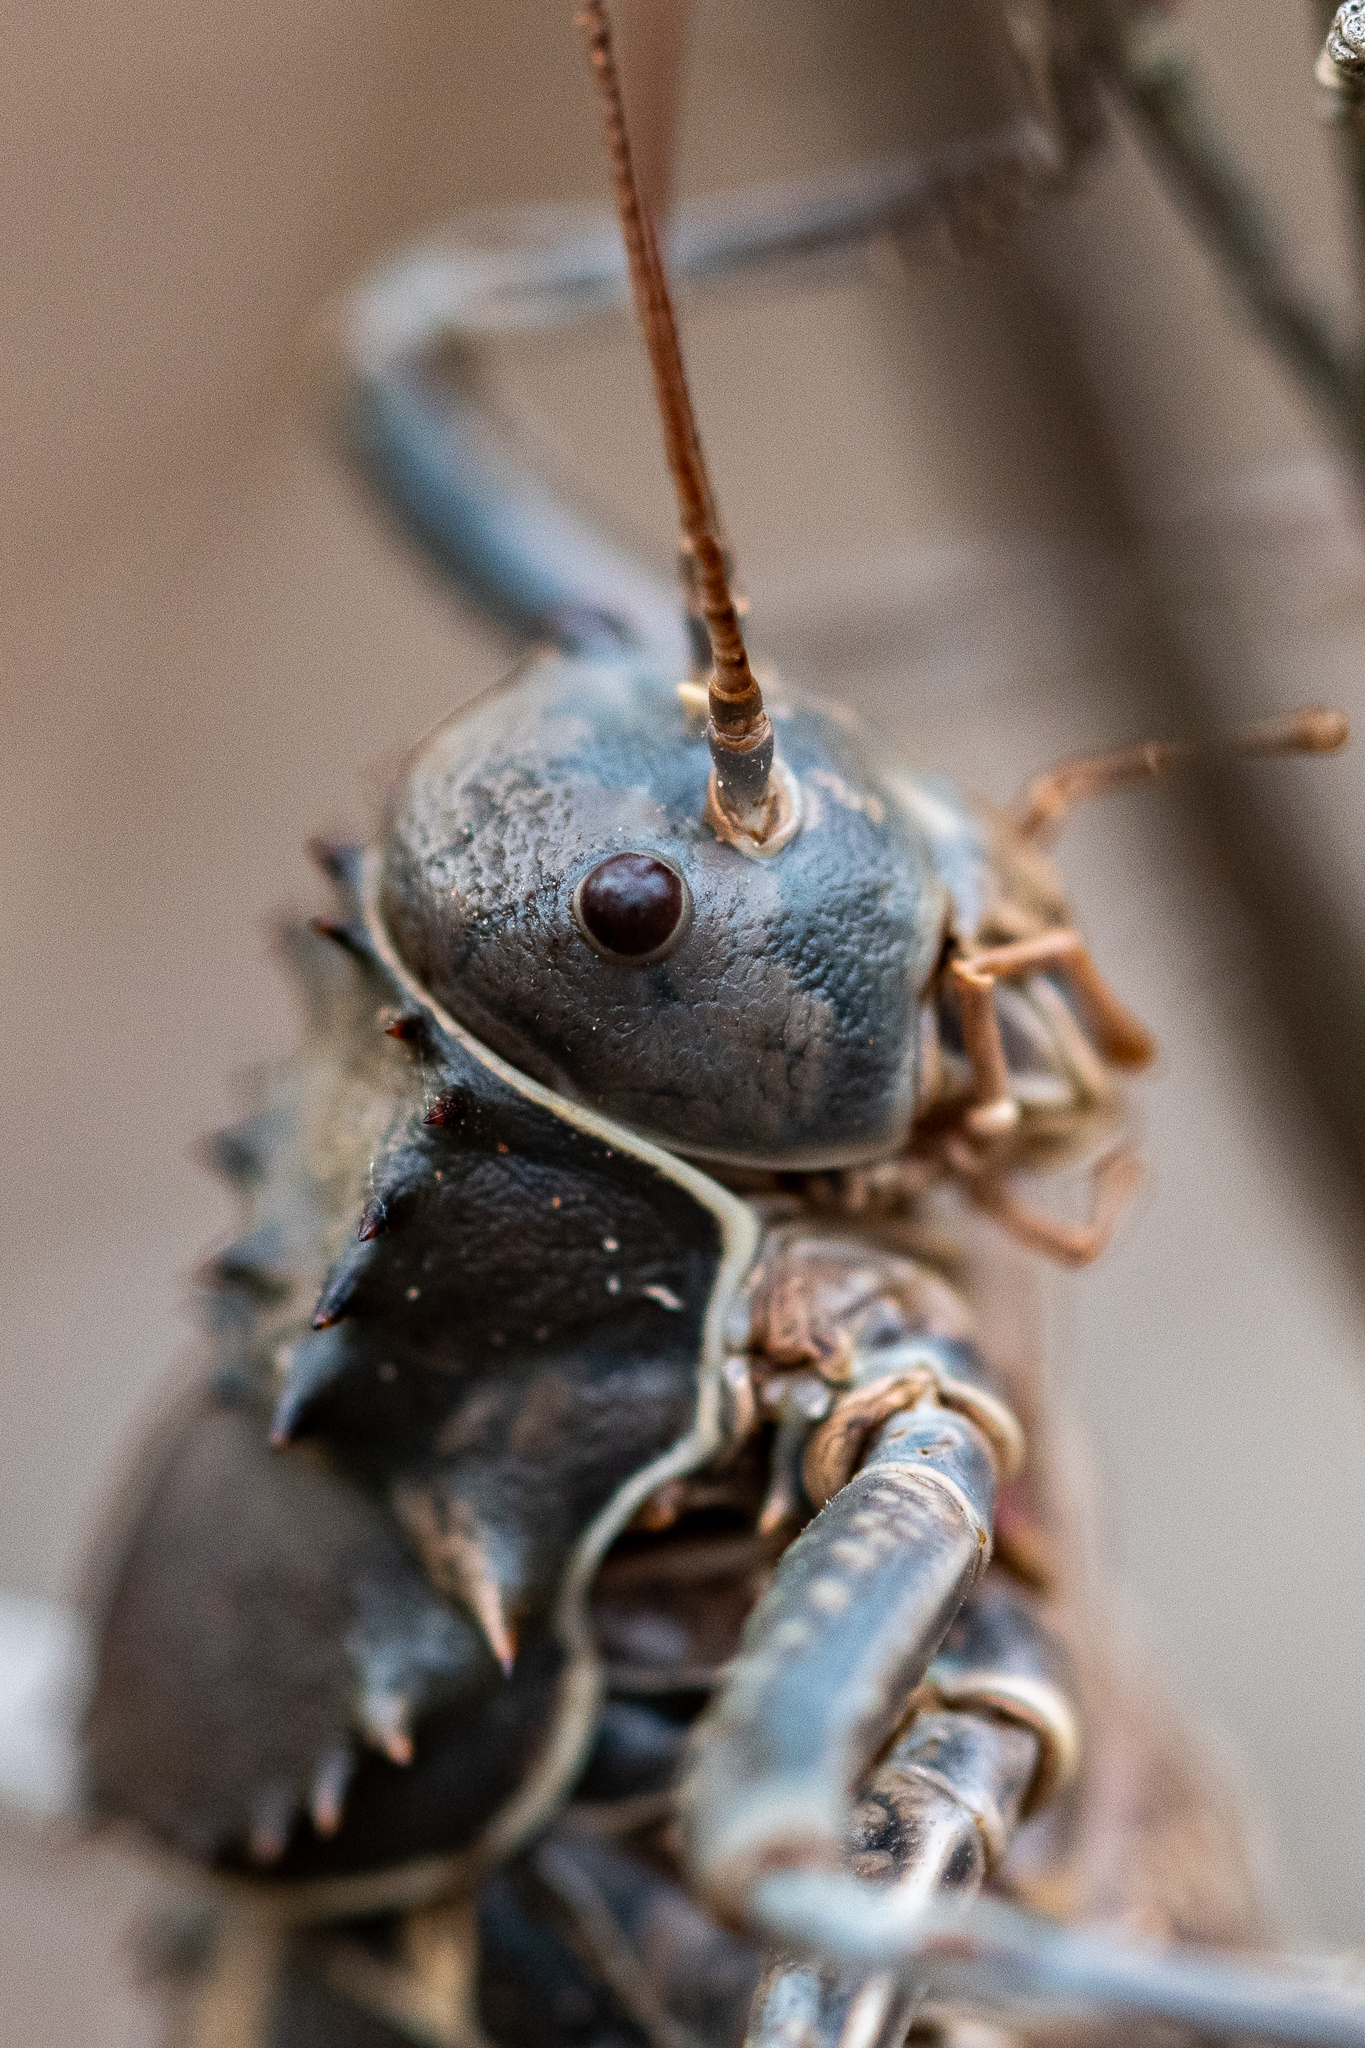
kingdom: Animalia
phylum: Arthropoda
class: Insecta
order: Orthoptera
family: Tettigoniidae
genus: Hetrodes
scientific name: Hetrodes pupus
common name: Koringkriek
